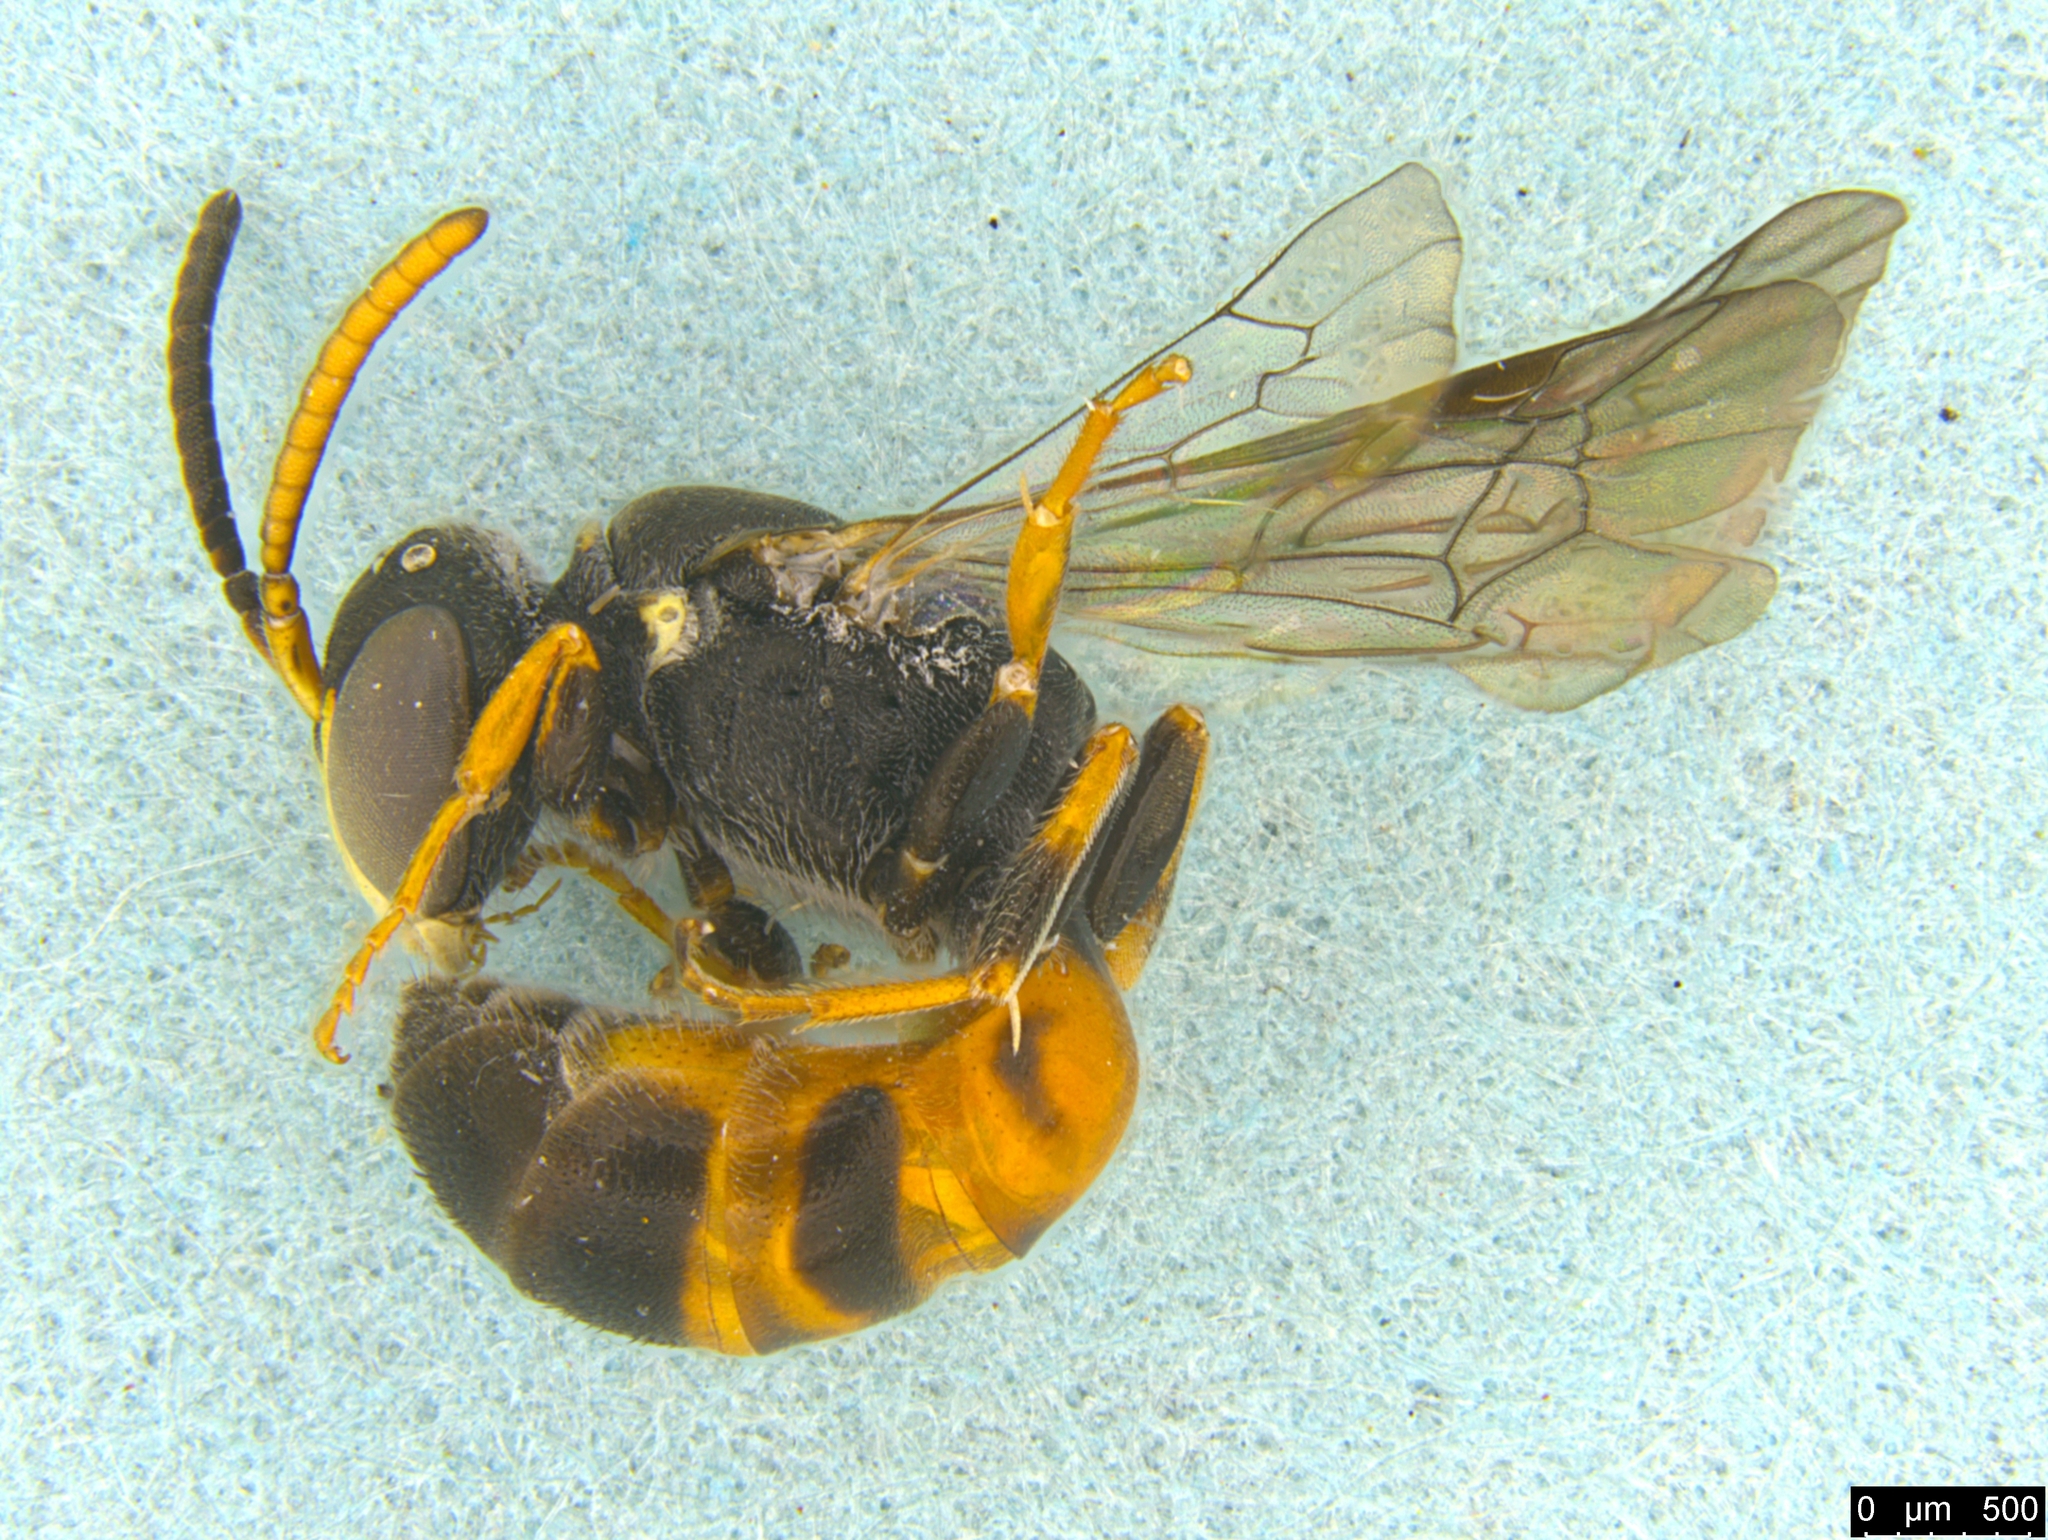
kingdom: Animalia
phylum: Arthropoda
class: Insecta
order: Hymenoptera
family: Colletidae
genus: Hylaeus
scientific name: Hylaeus littleri
